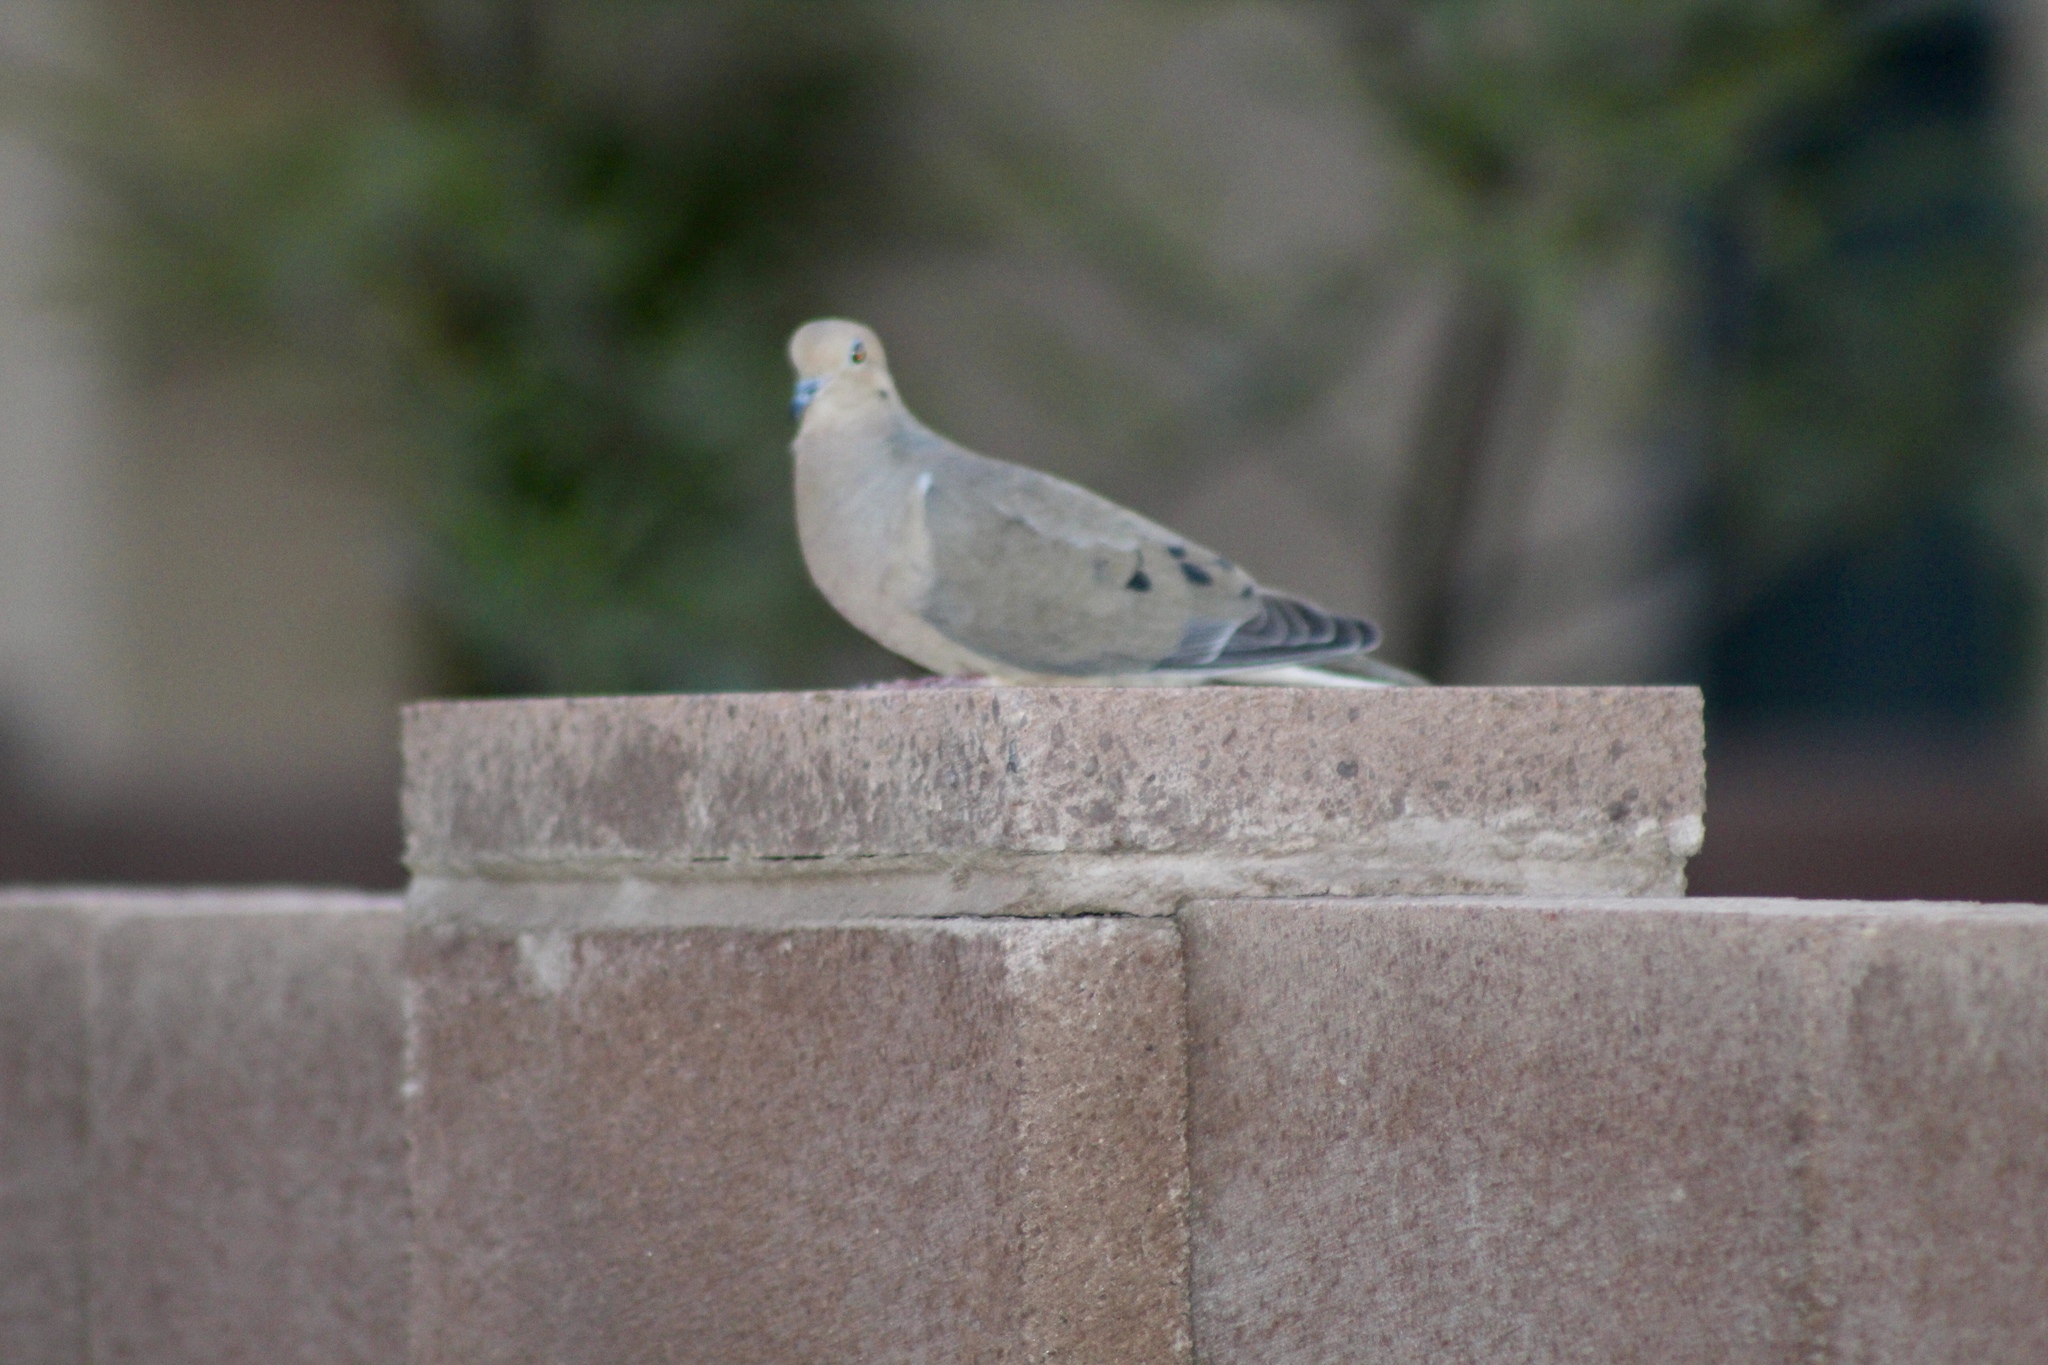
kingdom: Animalia
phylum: Chordata
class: Aves
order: Columbiformes
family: Columbidae
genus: Zenaida
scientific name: Zenaida macroura
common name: Mourning dove
